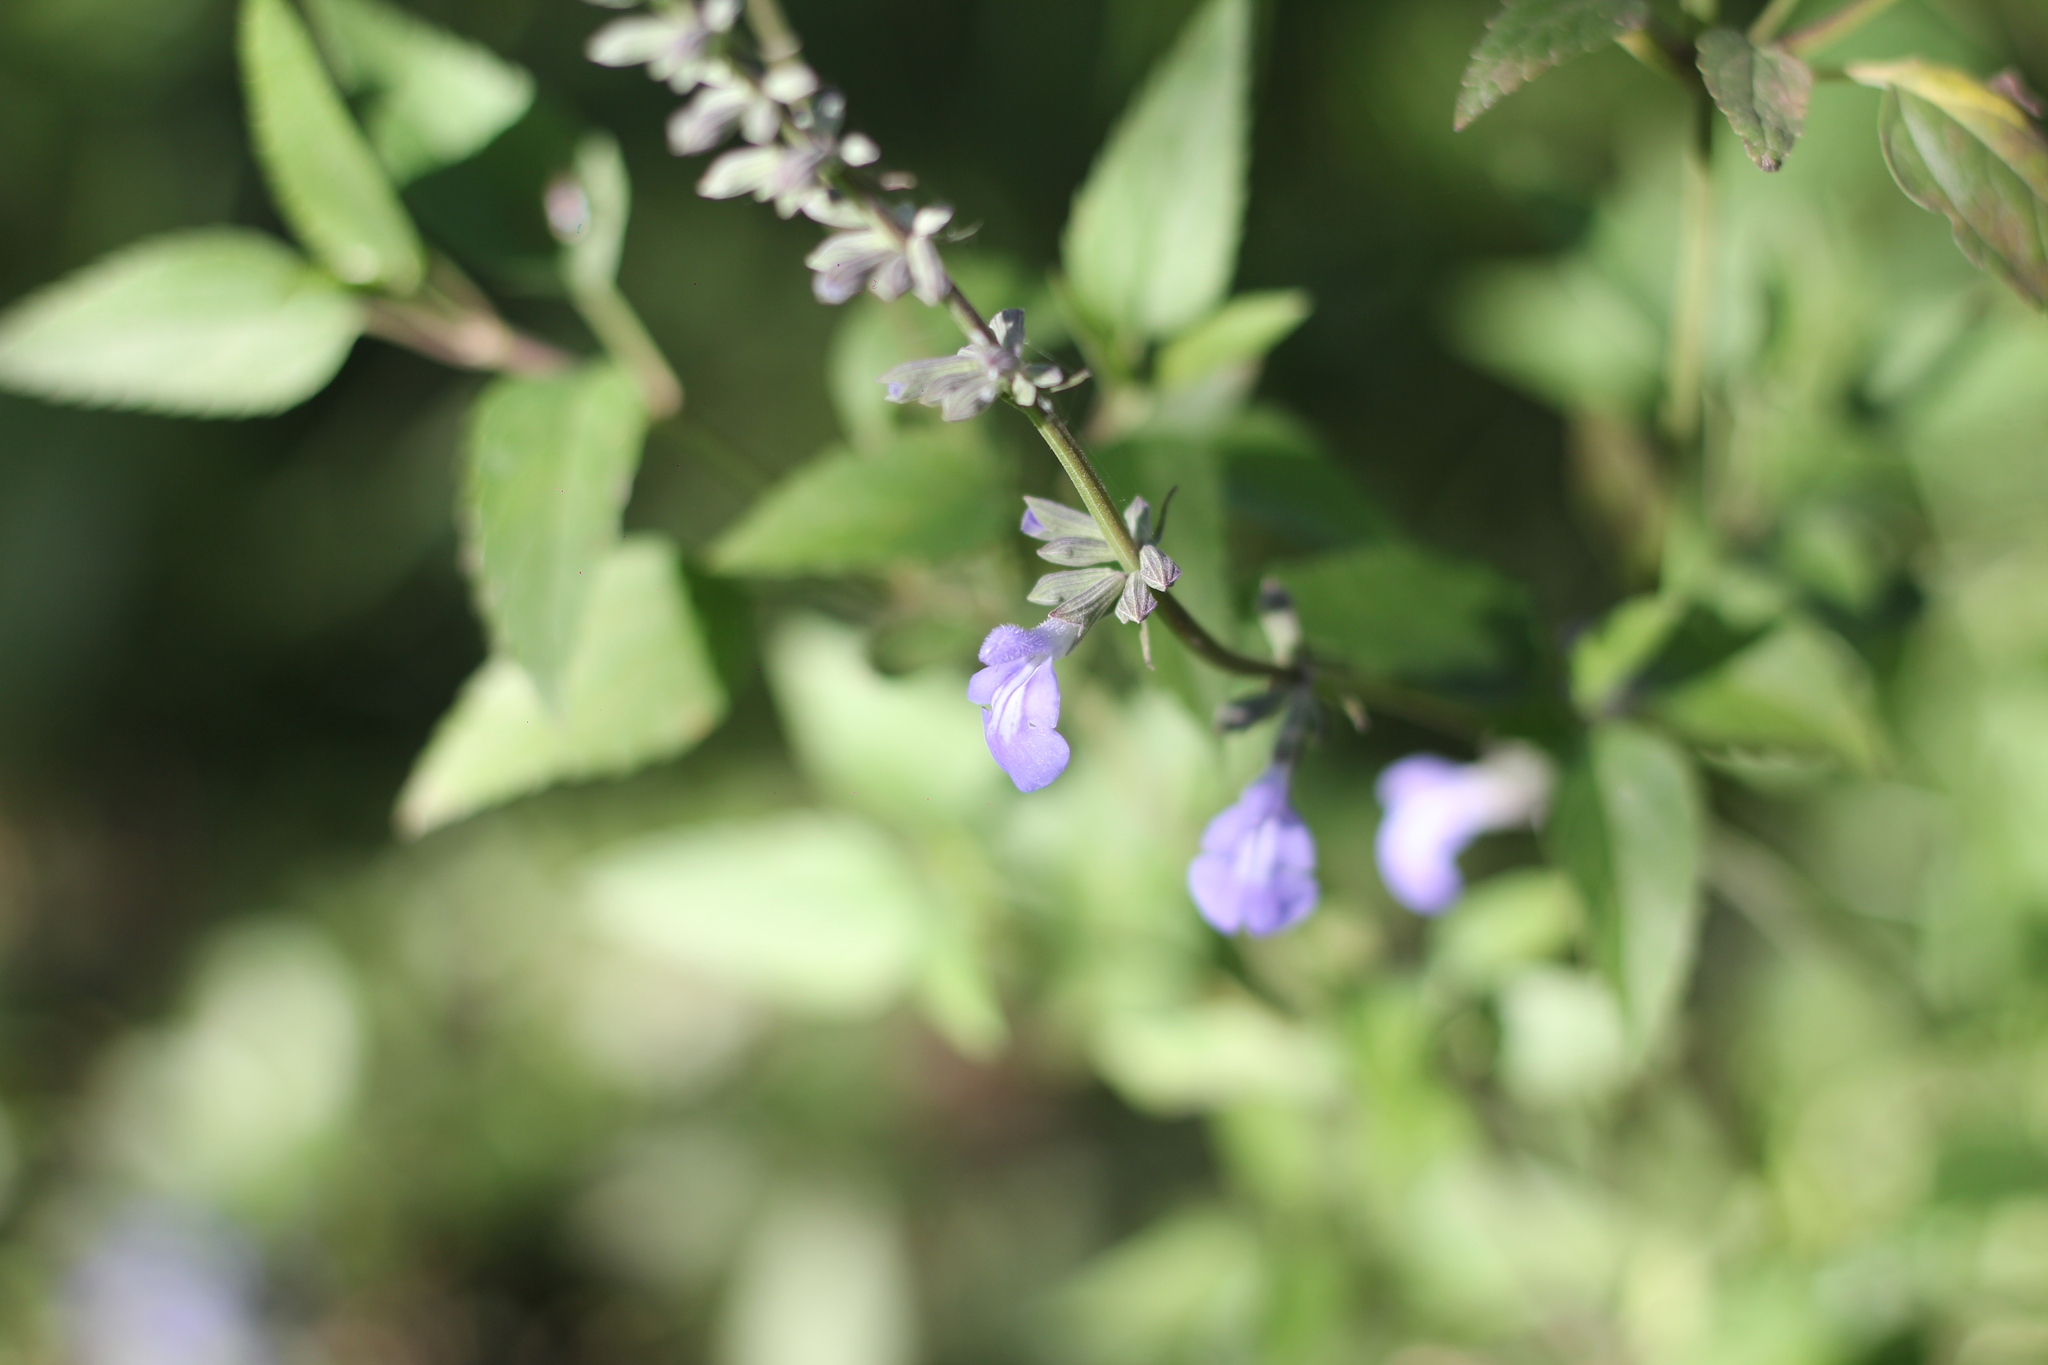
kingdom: Plantae
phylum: Tracheophyta
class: Magnoliopsida
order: Lamiales
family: Lamiaceae
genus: Salvia
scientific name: Salvia pallida
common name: Pale sage
